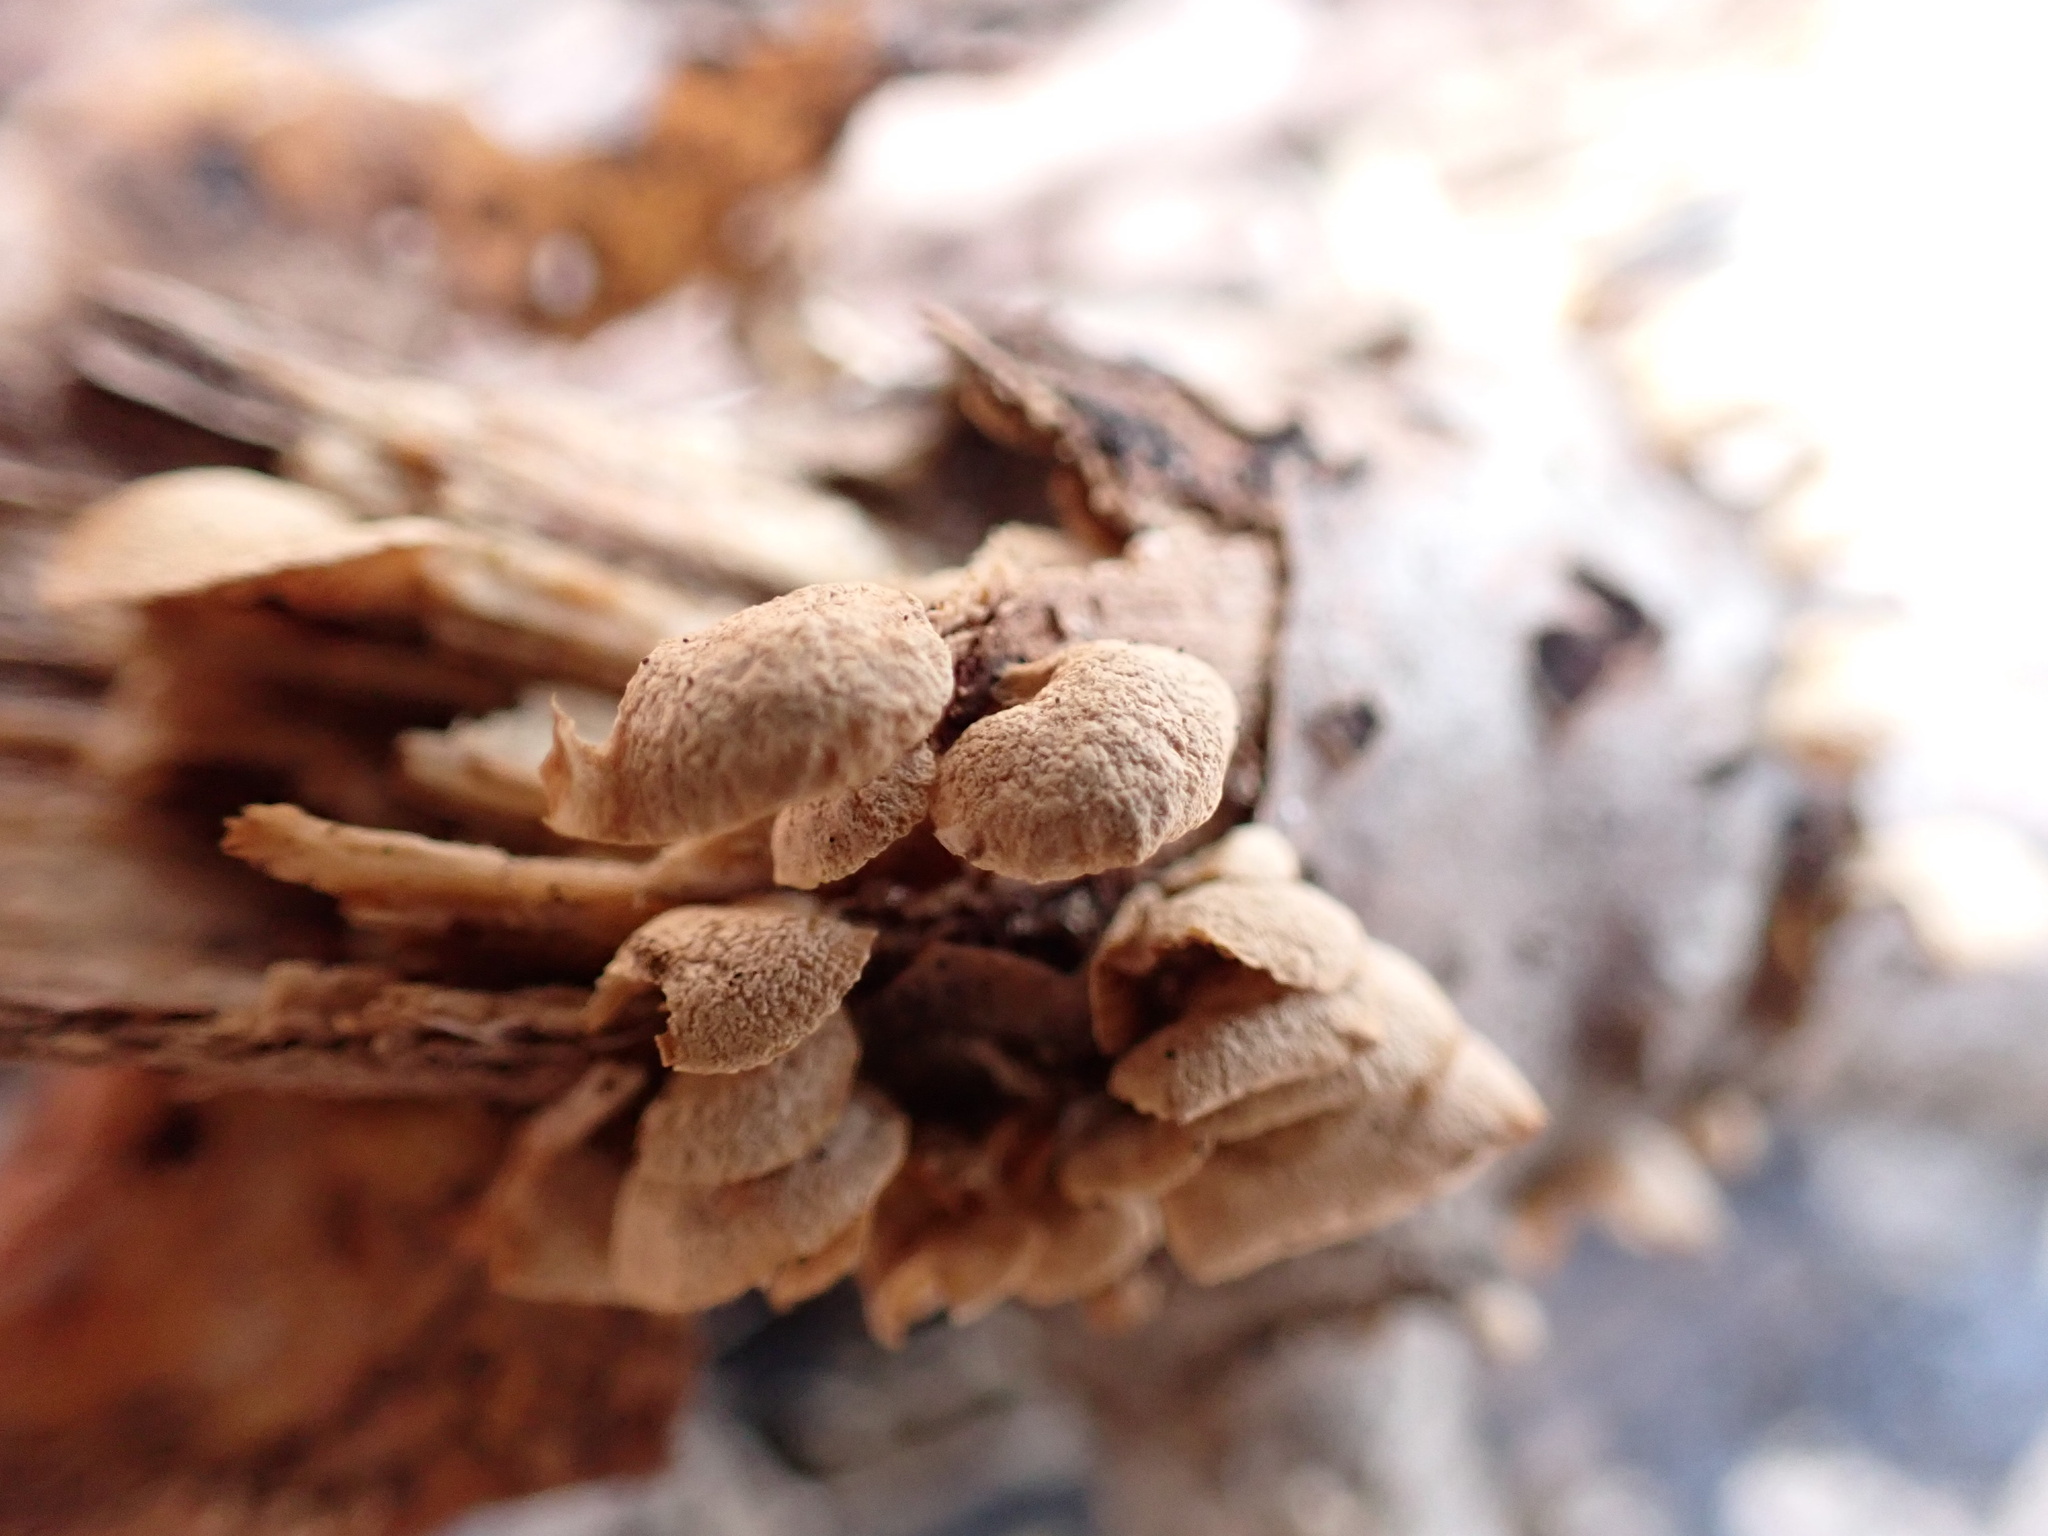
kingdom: Fungi
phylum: Basidiomycota
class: Agaricomycetes
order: Agaricales
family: Mycenaceae
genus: Panellus
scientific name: Panellus stipticus
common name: Bitter oysterling
